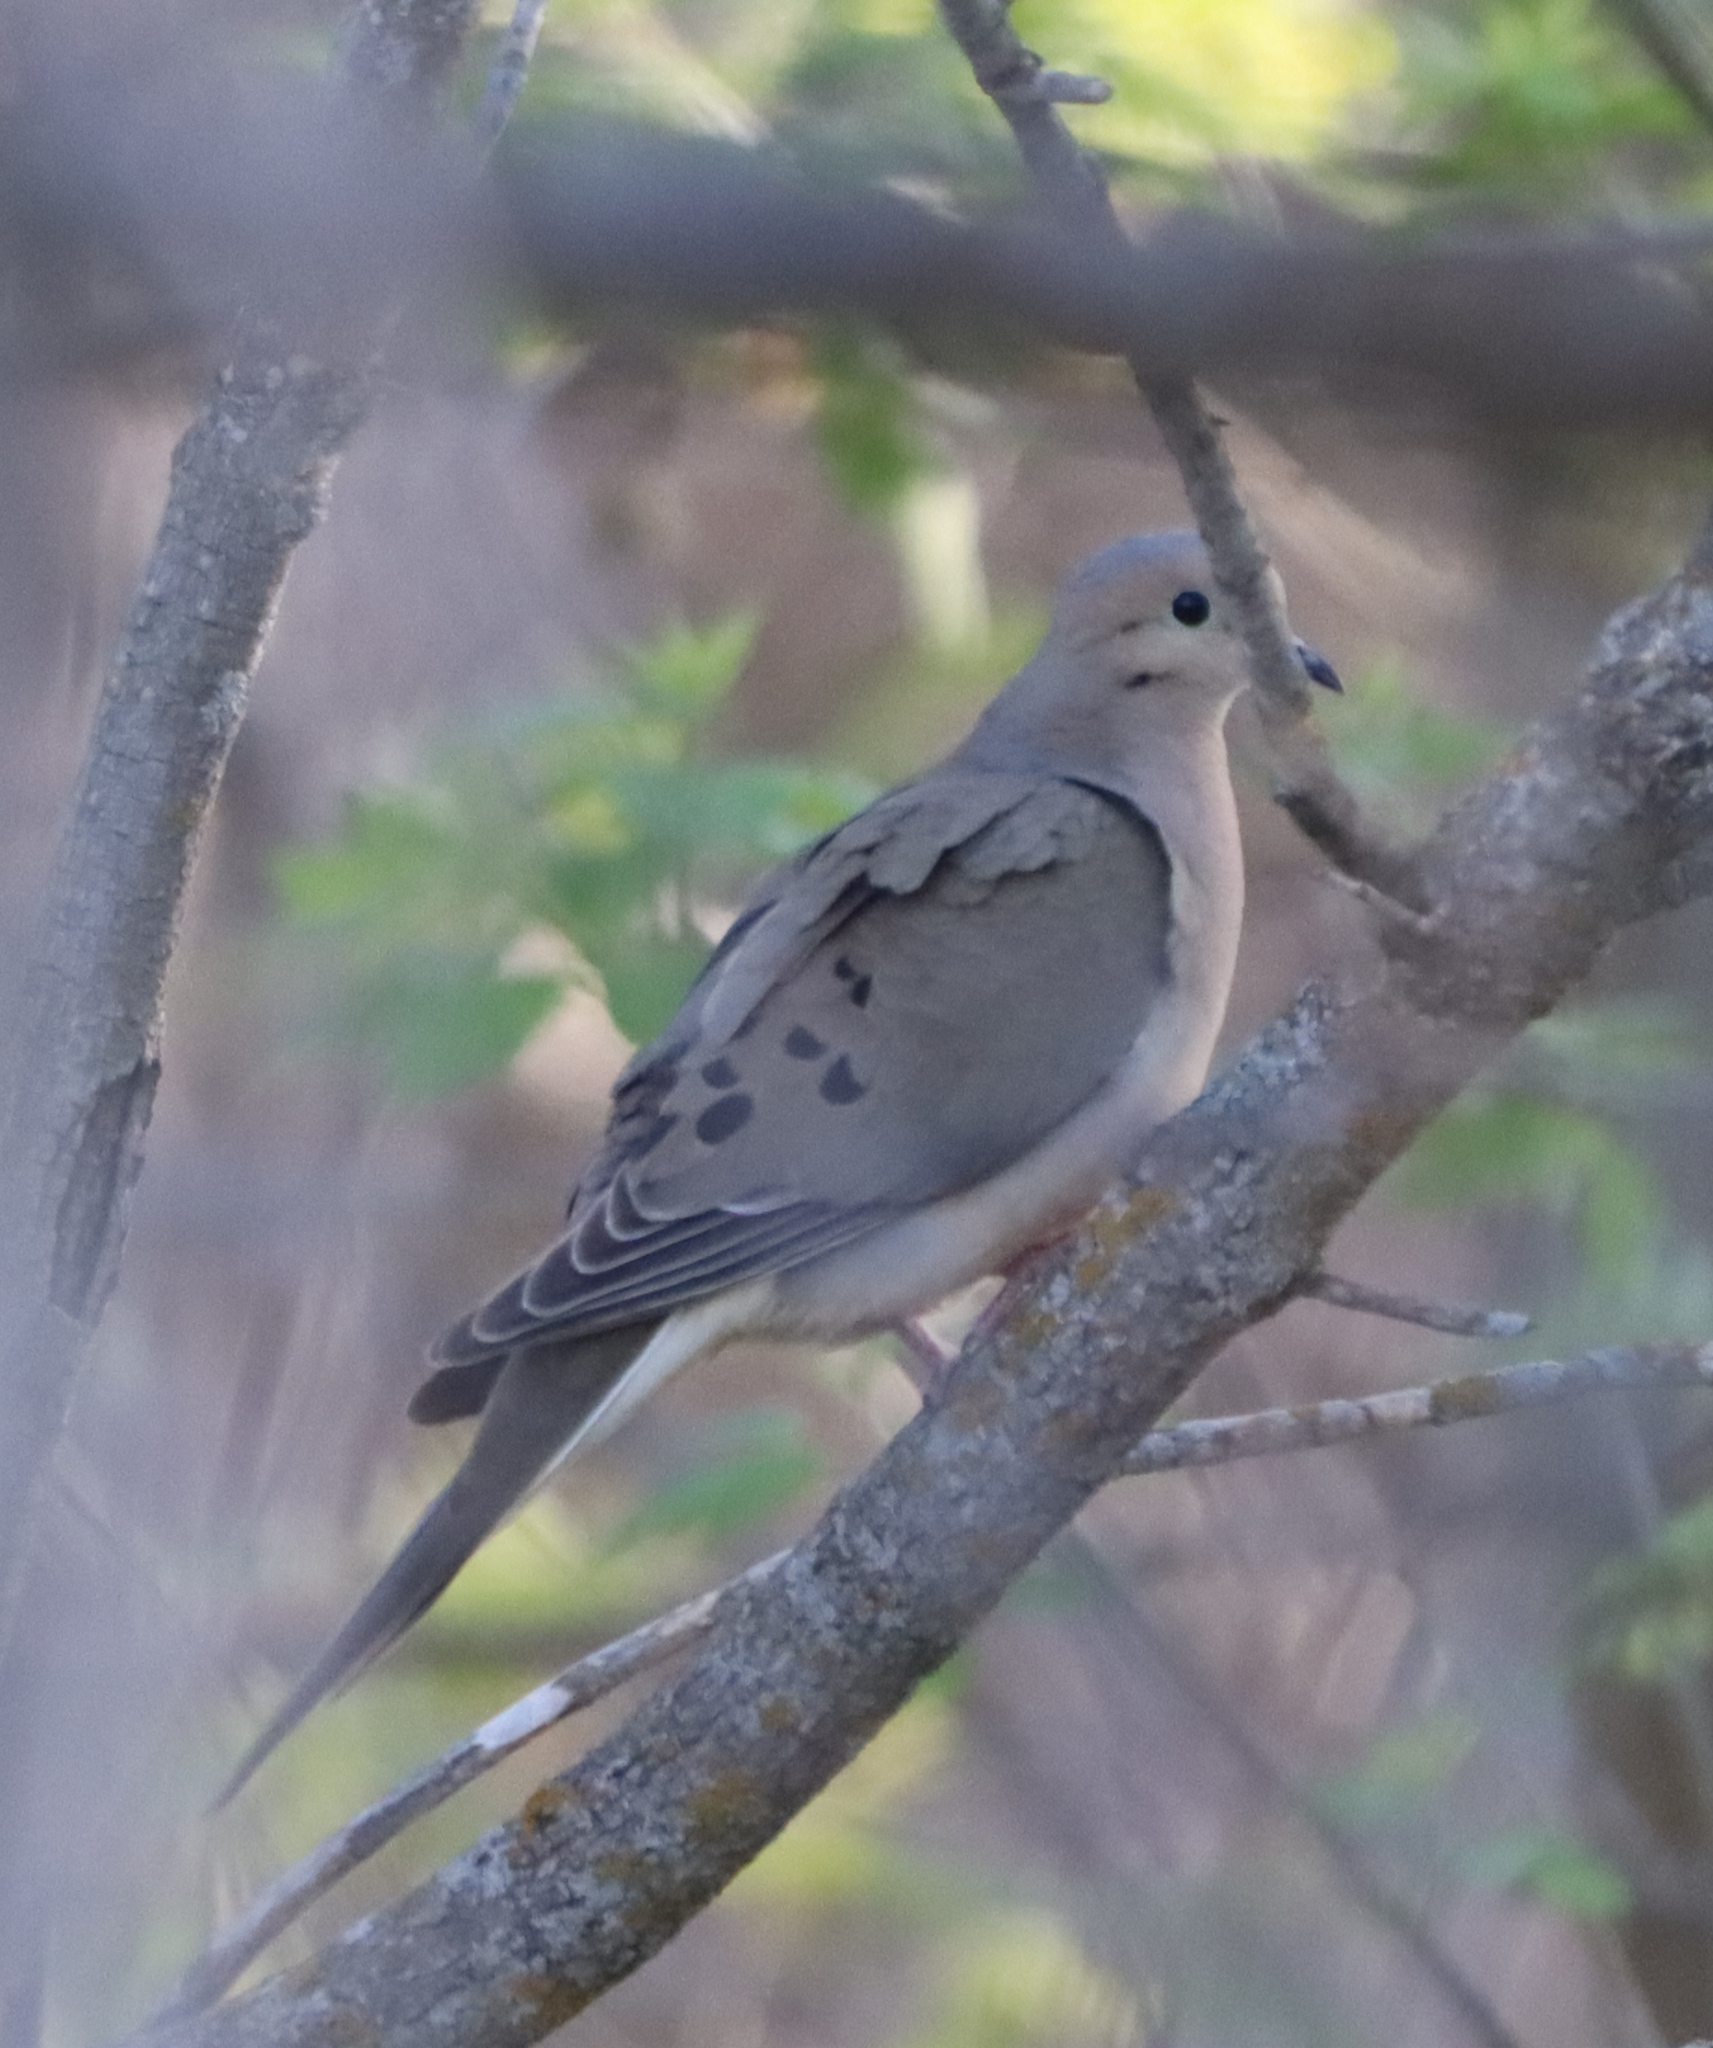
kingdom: Animalia
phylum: Chordata
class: Aves
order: Columbiformes
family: Columbidae
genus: Zenaida
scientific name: Zenaida macroura
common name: Mourning dove
